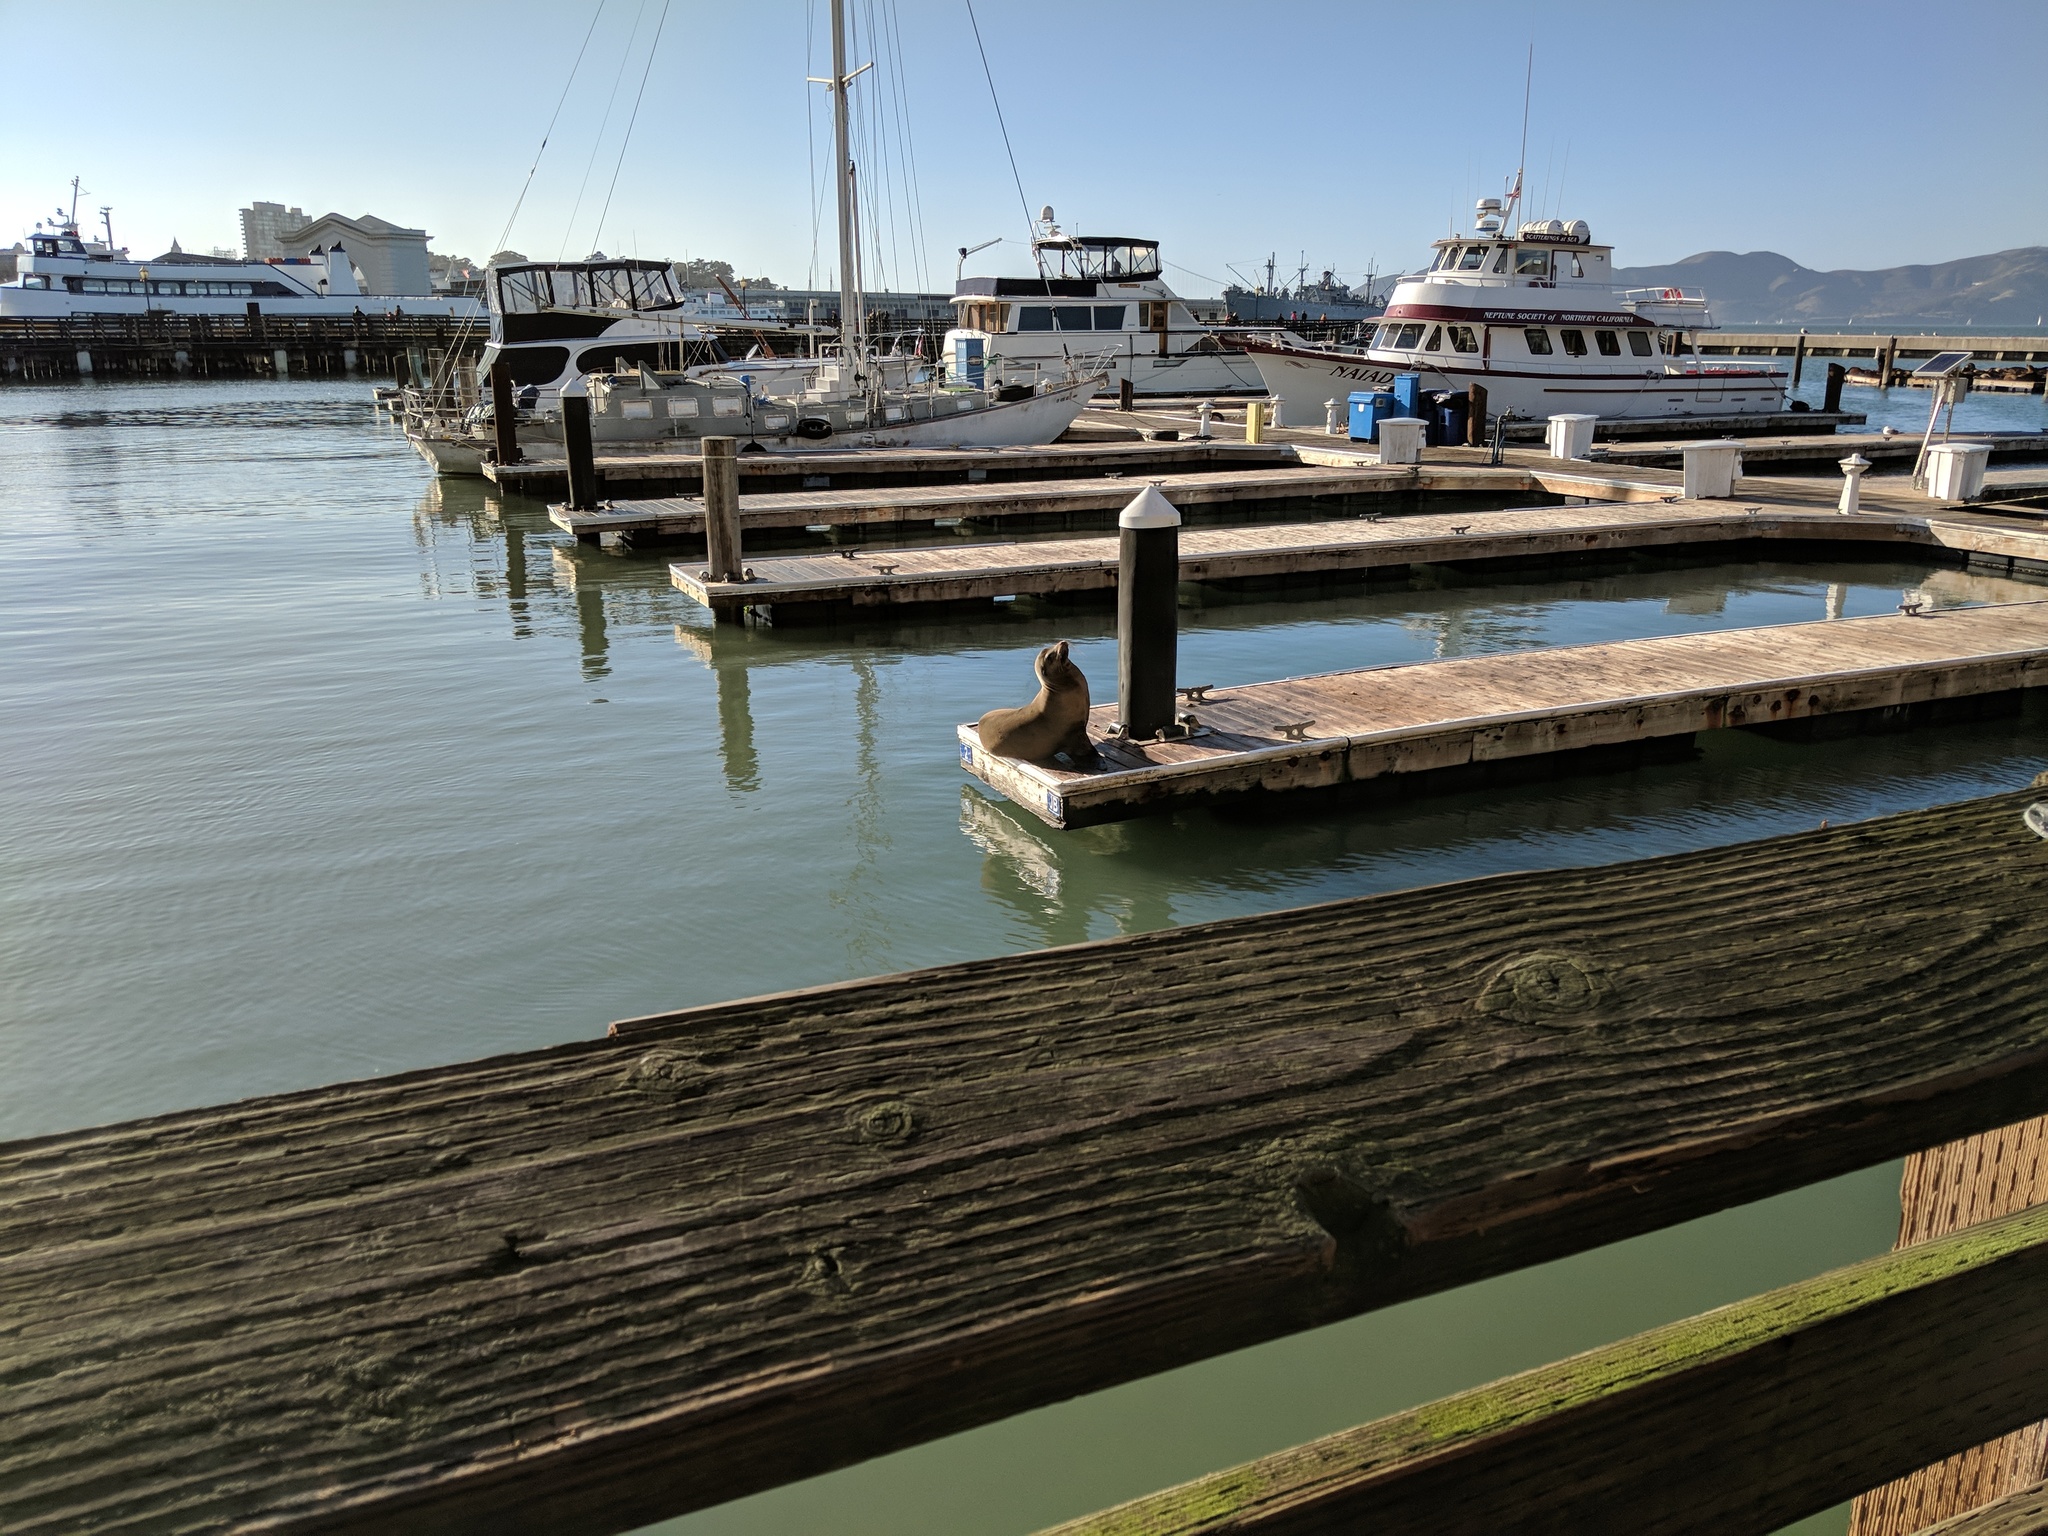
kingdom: Animalia
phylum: Chordata
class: Mammalia
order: Carnivora
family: Otariidae
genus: Zalophus
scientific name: Zalophus californianus
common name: California sea lion
